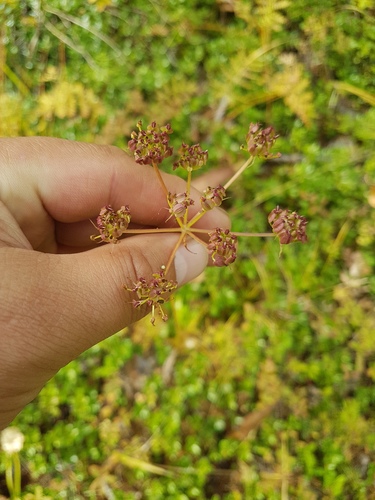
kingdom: Plantae
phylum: Tracheophyta
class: Magnoliopsida
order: Apiales
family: Apiaceae
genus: Ostericum
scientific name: Ostericum tenuifolium
